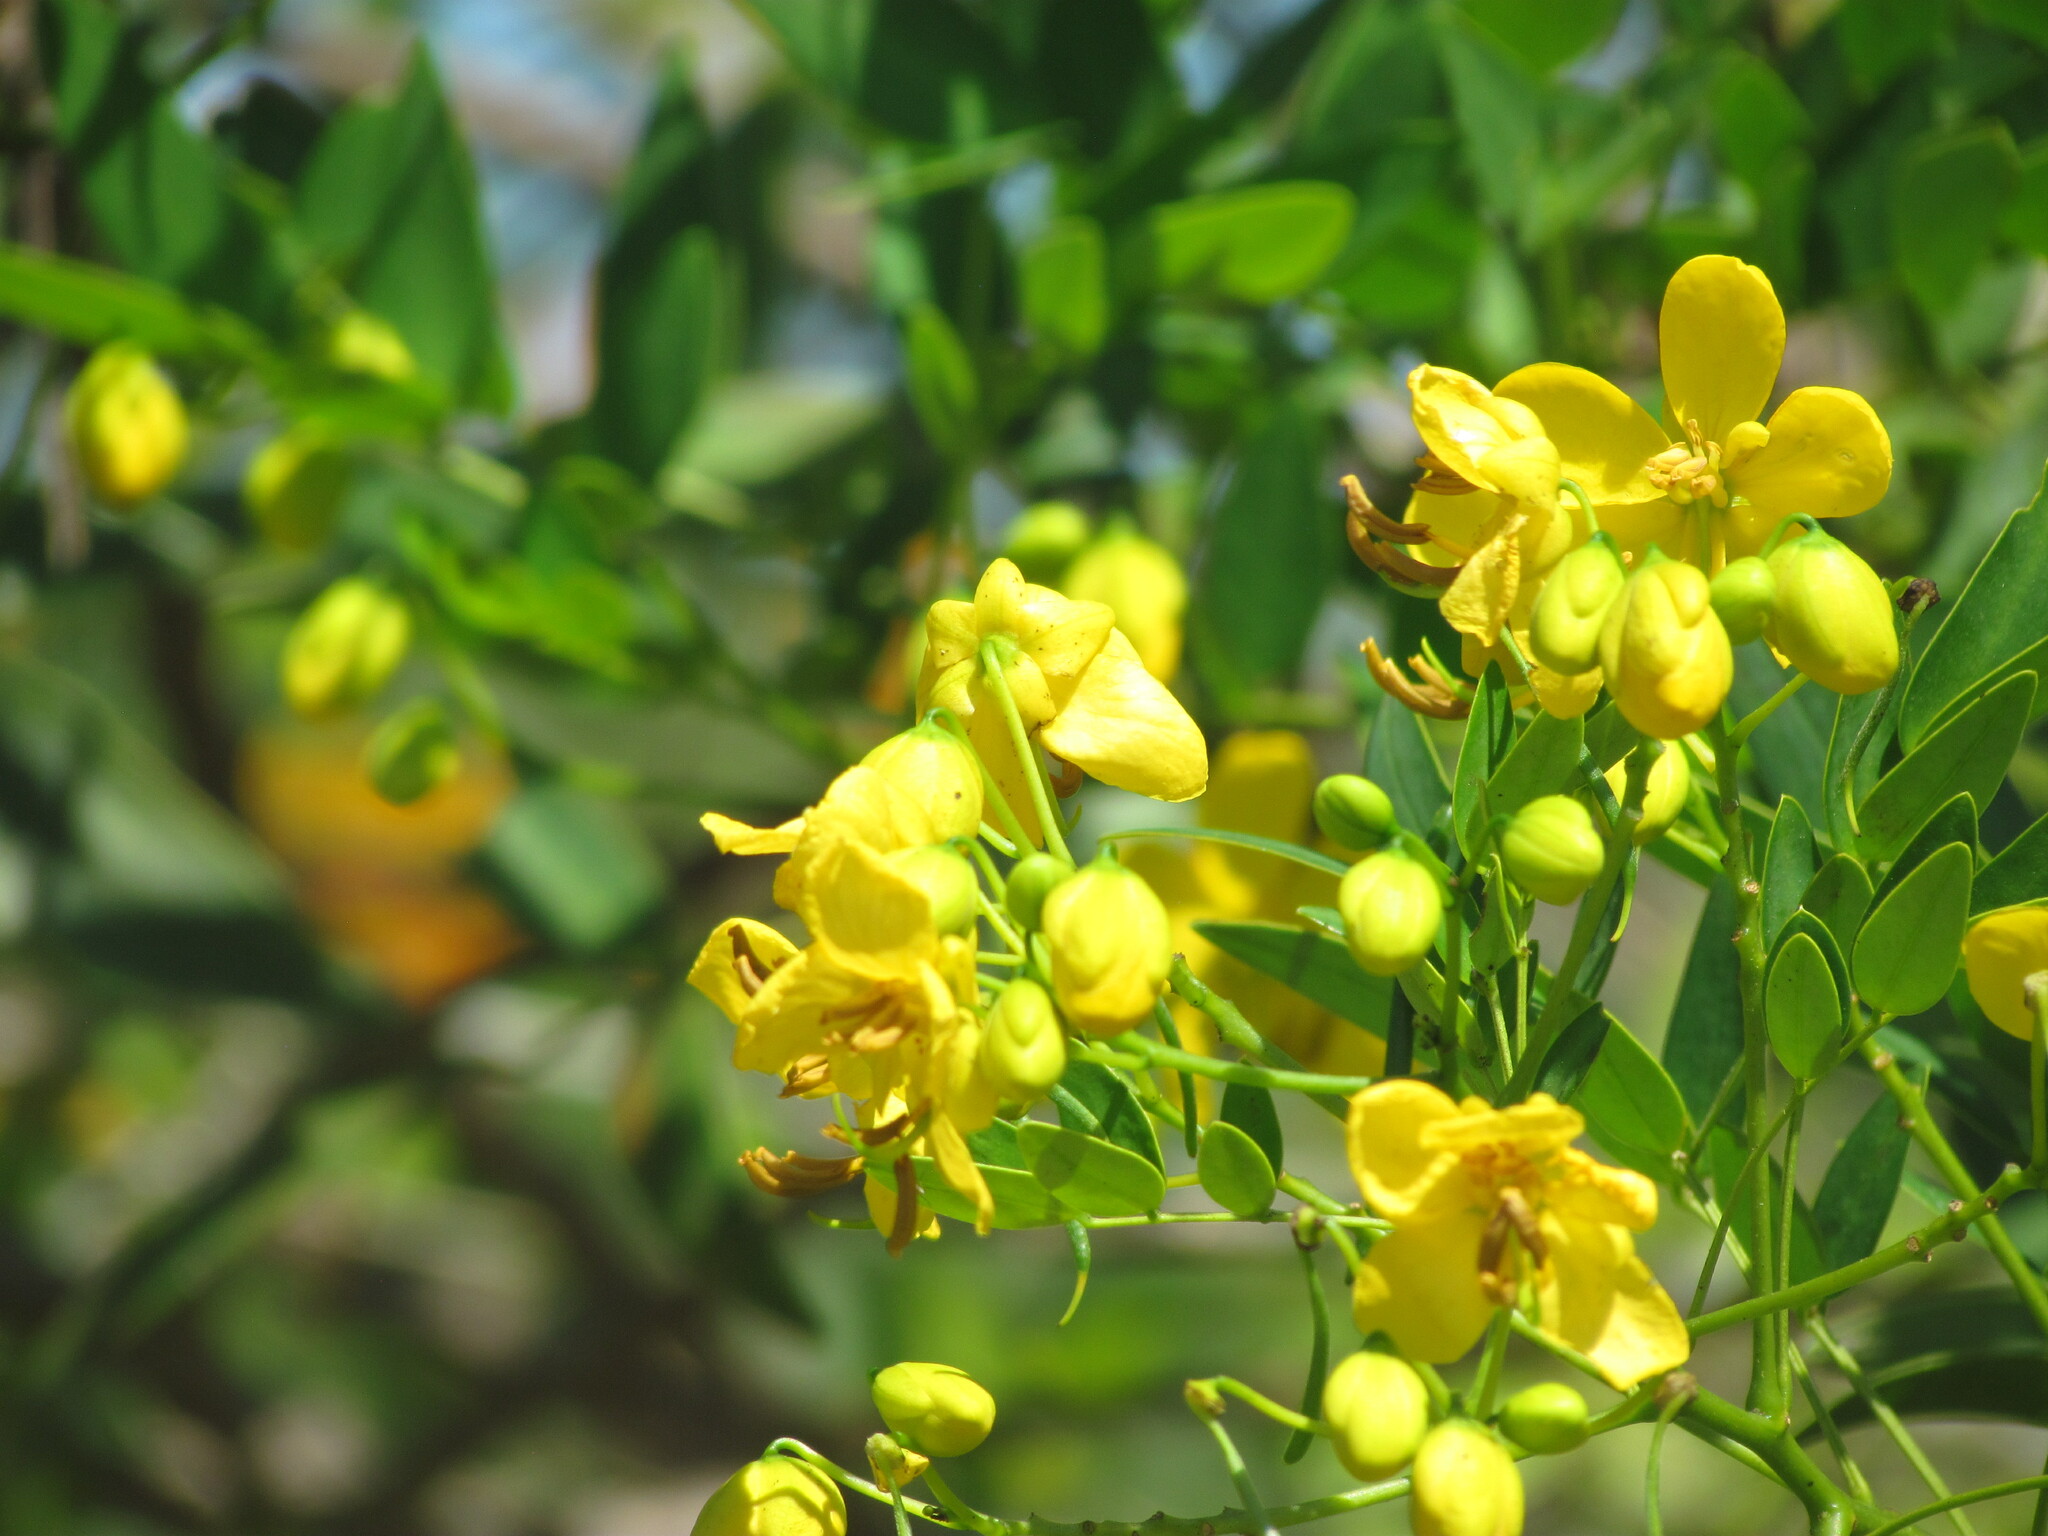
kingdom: Plantae
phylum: Tracheophyta
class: Magnoliopsida
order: Fabales
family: Fabaceae
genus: Senna
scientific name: Senna corymbosa
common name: Argentine senna
